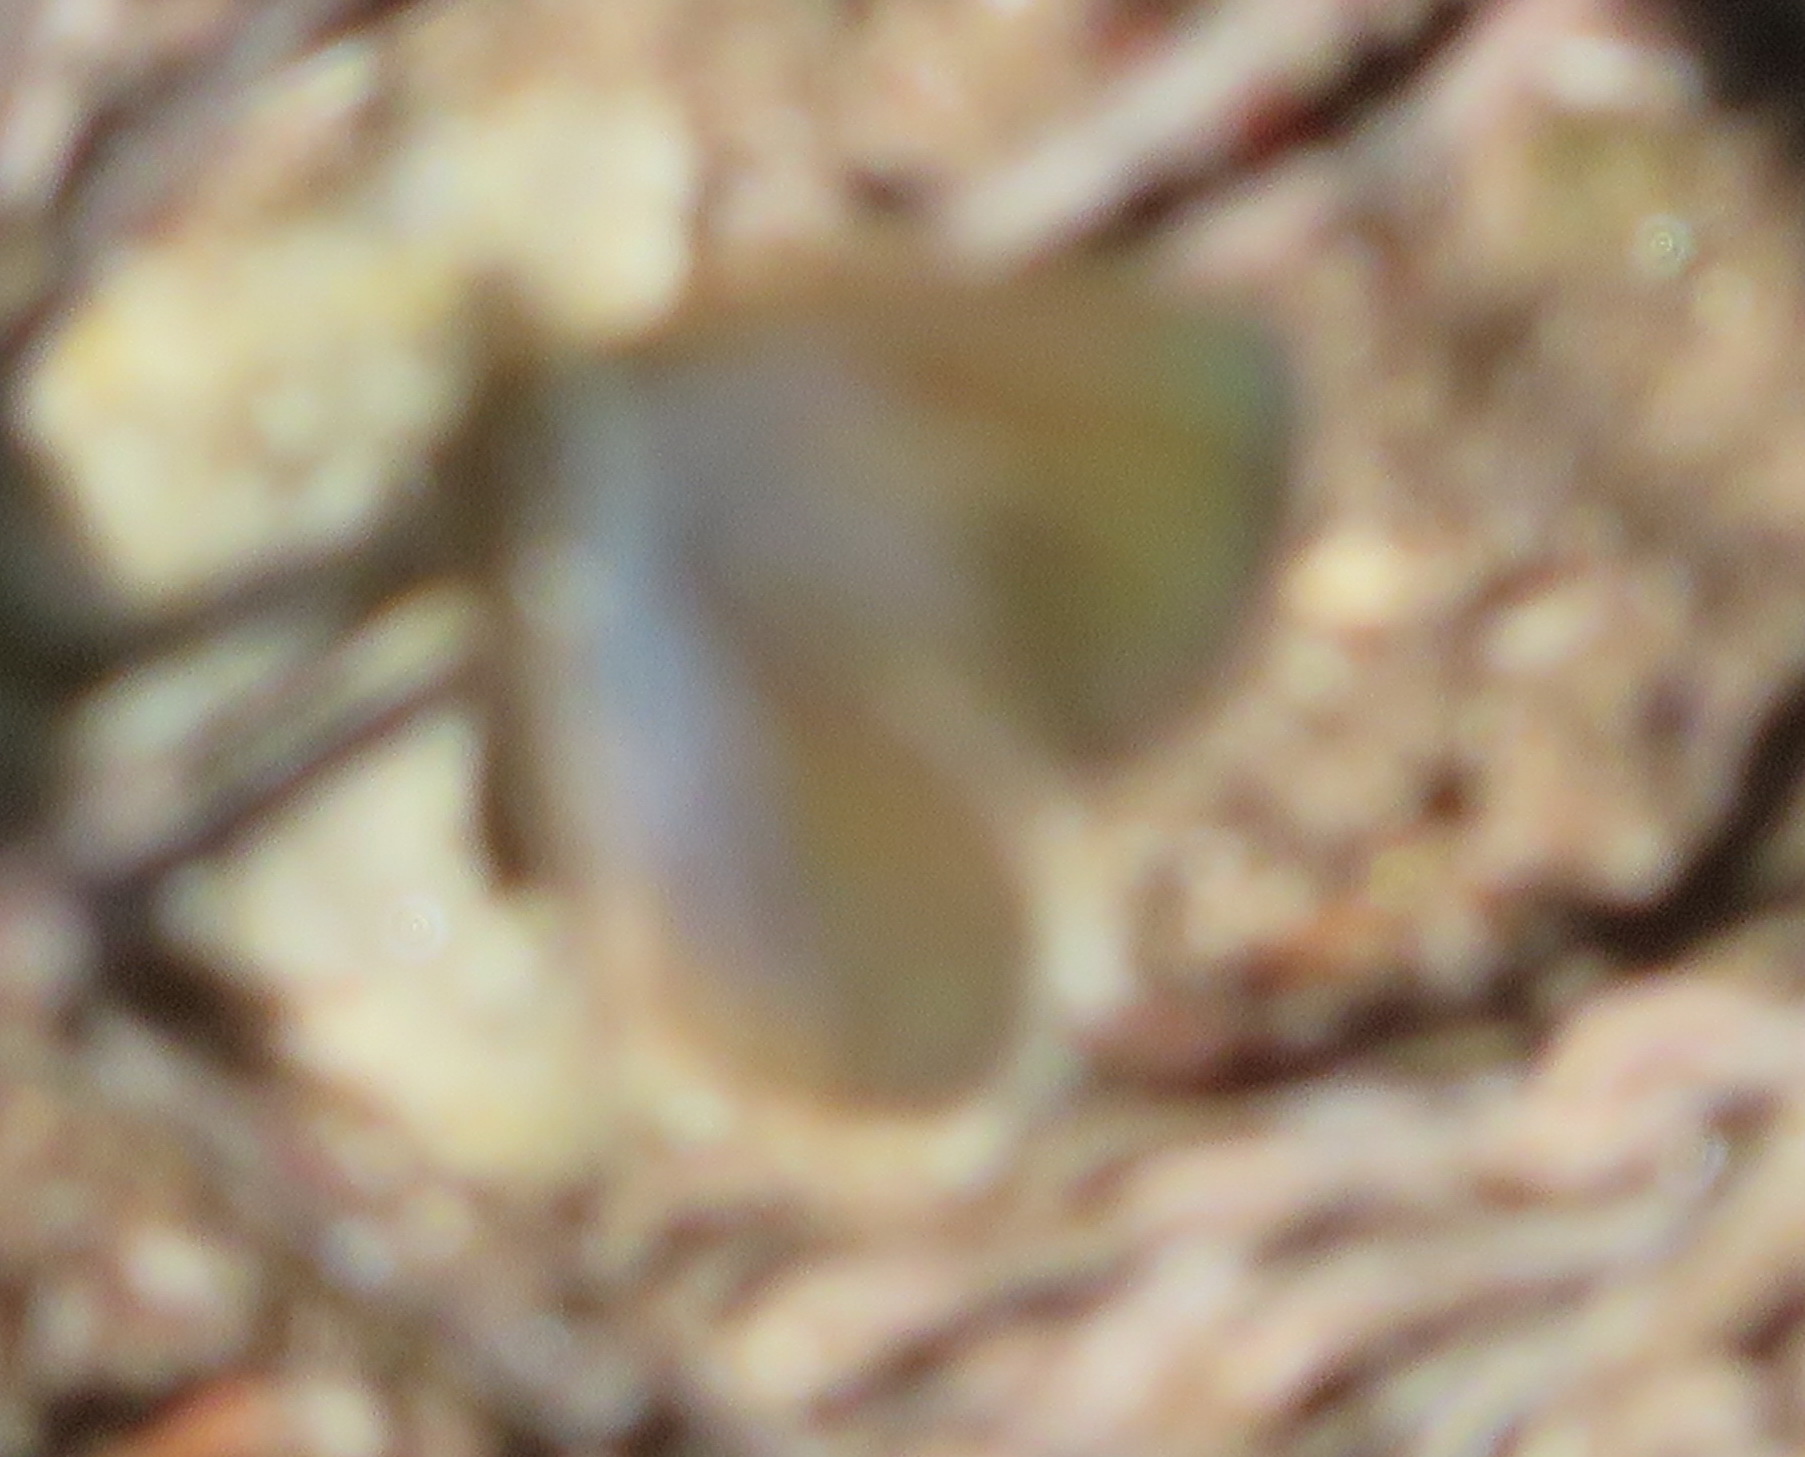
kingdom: Animalia
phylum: Arthropoda
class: Insecta
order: Lepidoptera
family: Lycaenidae
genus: Zizeeria
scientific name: Zizeeria knysna
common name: African grass blue
